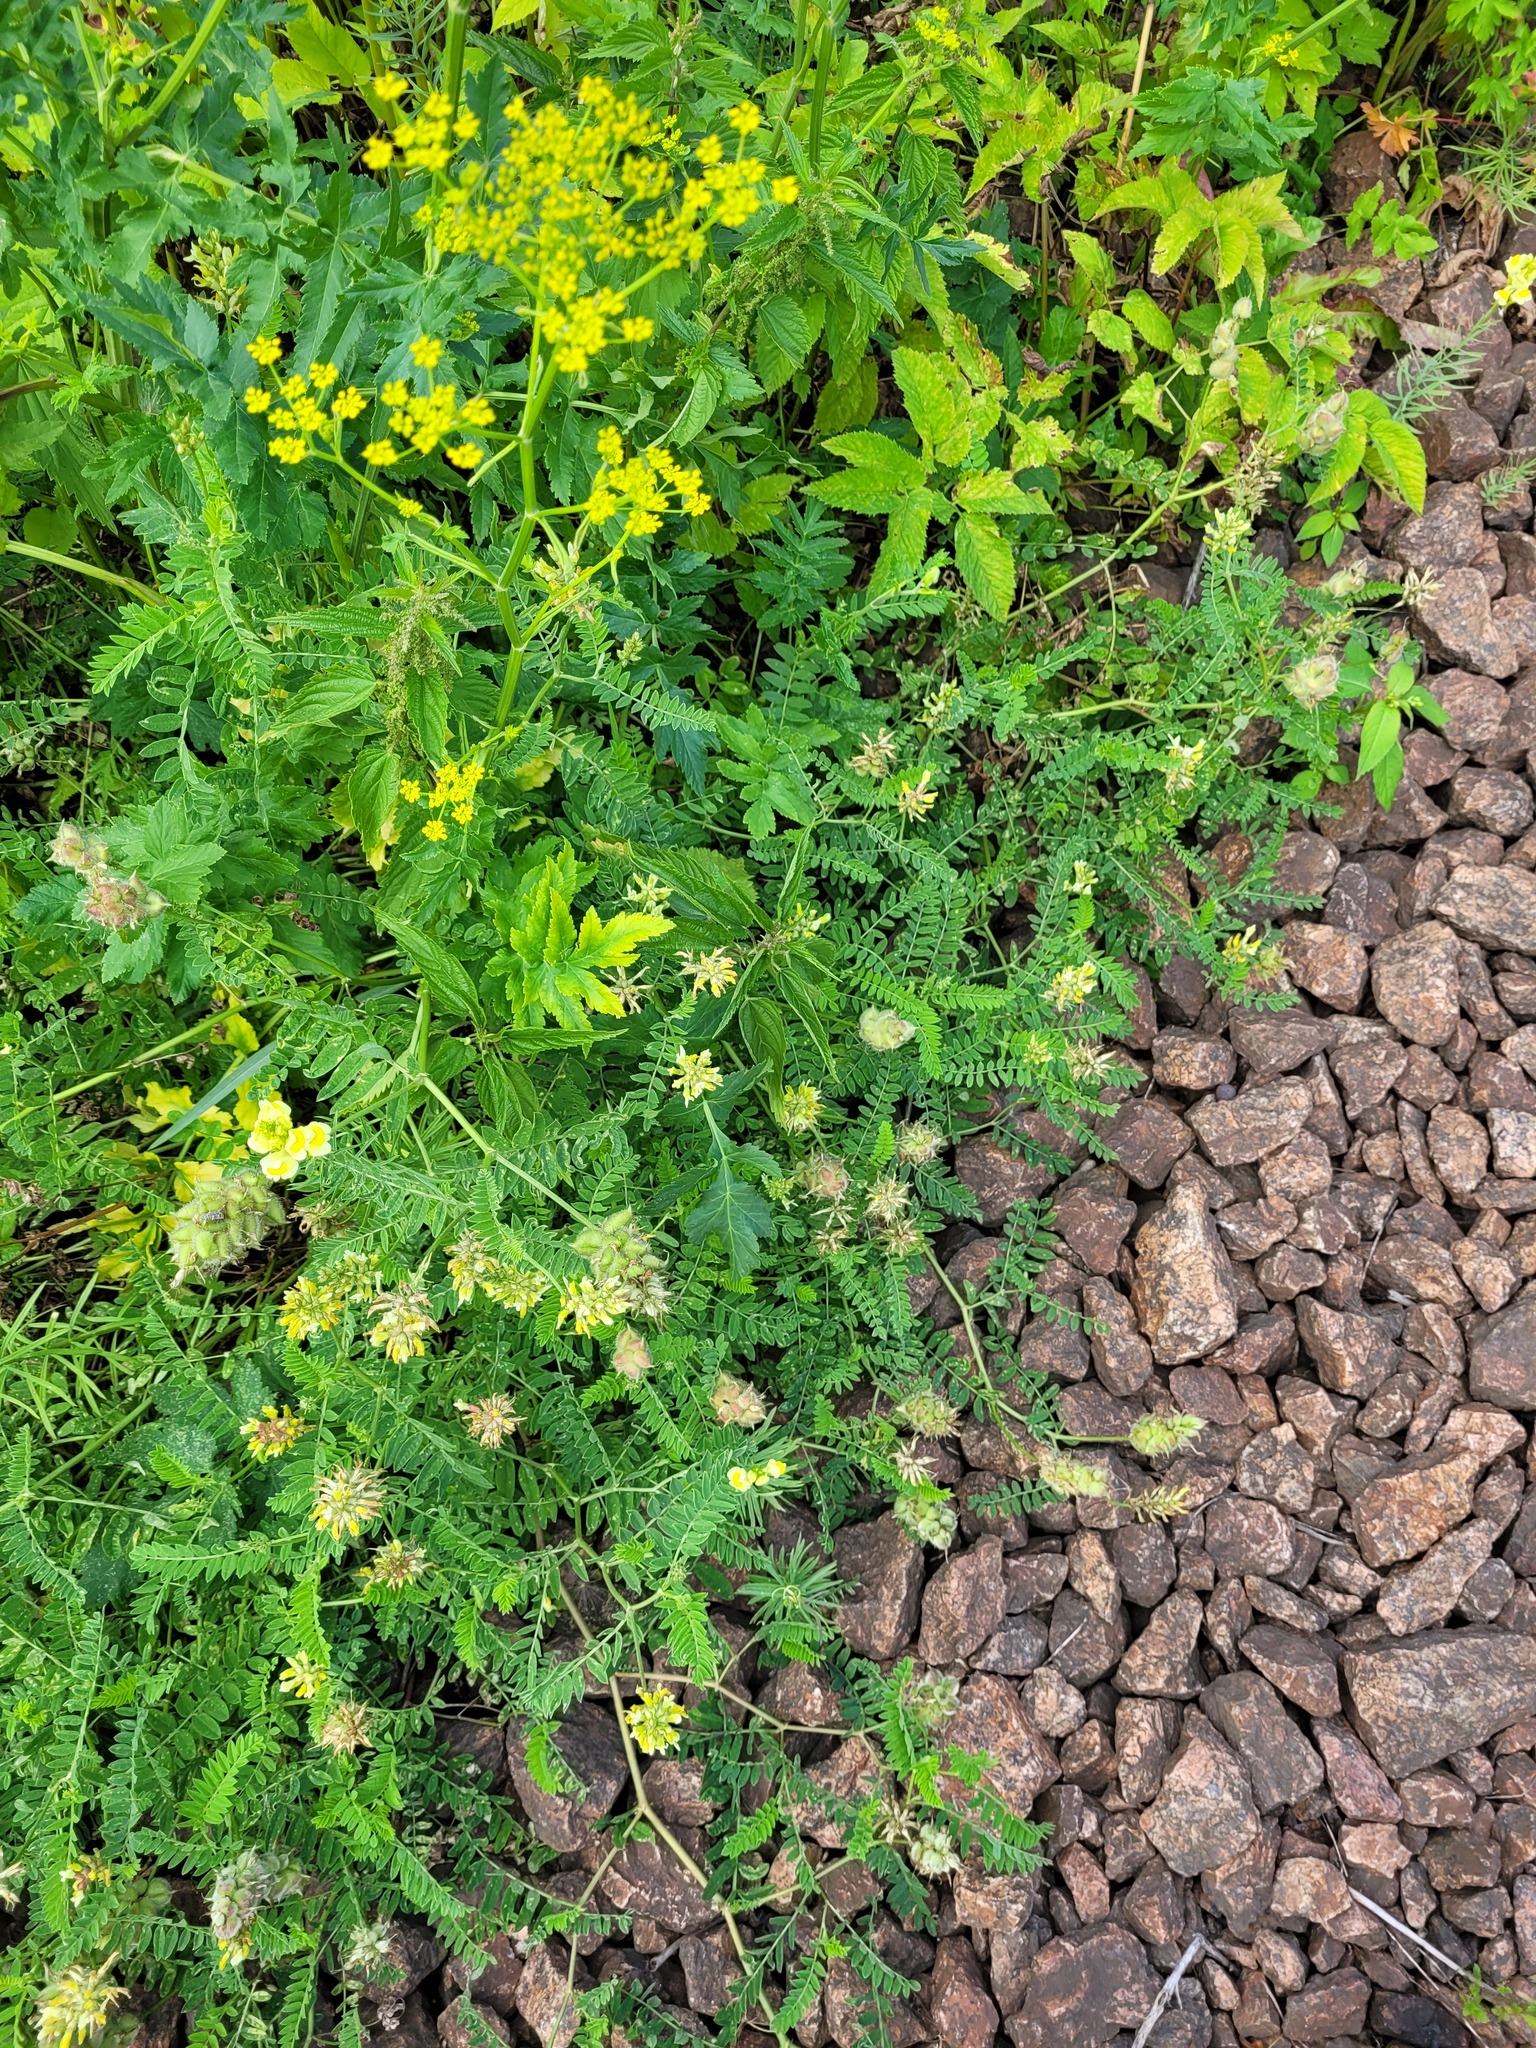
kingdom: Plantae
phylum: Tracheophyta
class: Magnoliopsida
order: Fabales
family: Fabaceae
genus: Astragalus
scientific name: Astragalus cicer
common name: Chick-pea milk-vetch
